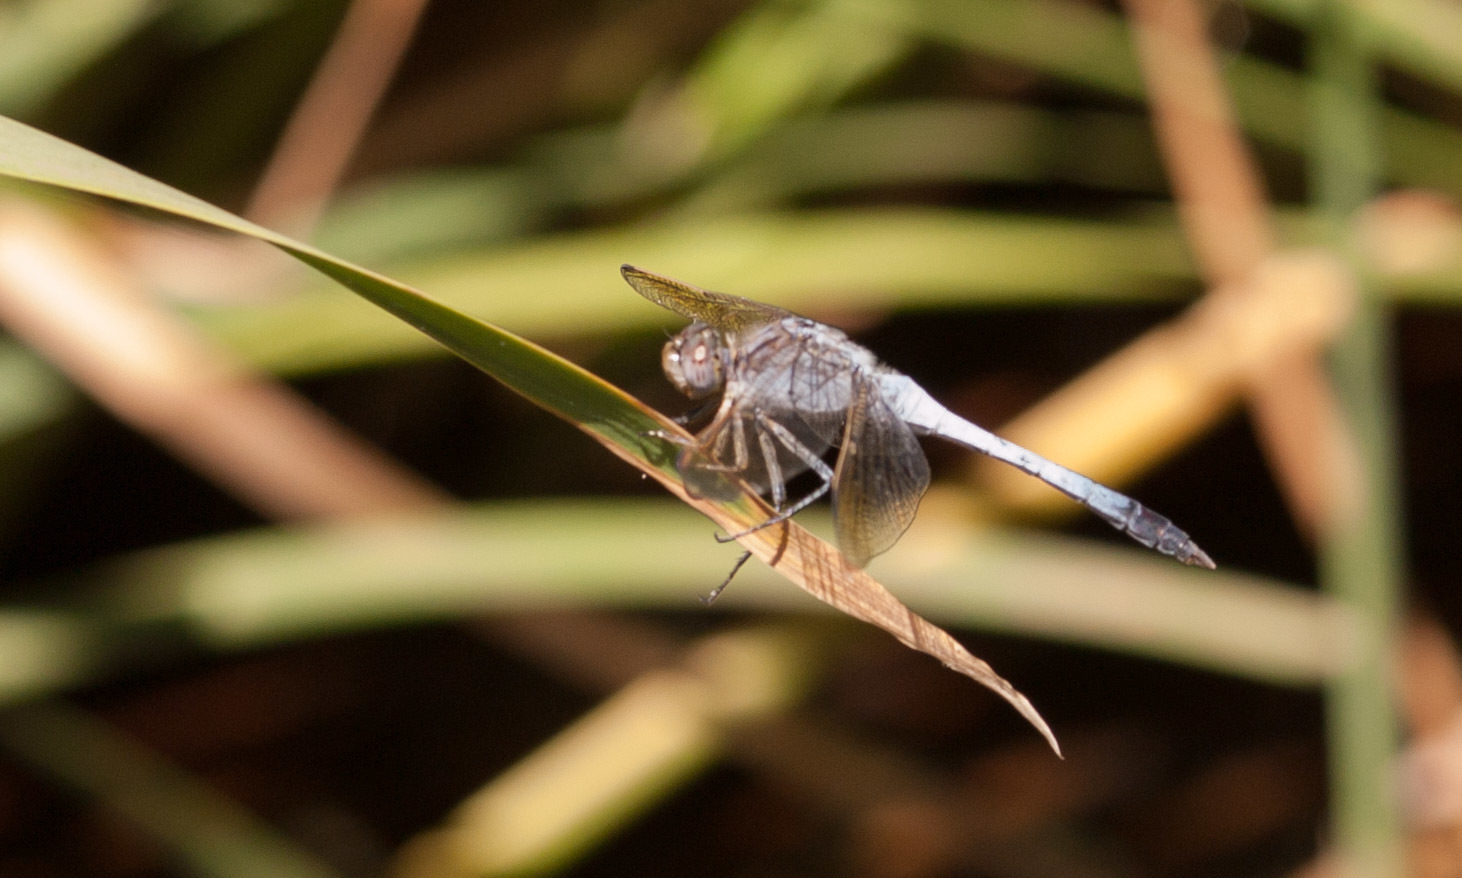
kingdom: Animalia
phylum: Arthropoda
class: Insecta
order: Odonata
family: Libellulidae
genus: Orthetrum
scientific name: Orthetrum caledonicum
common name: Blue skimmer
